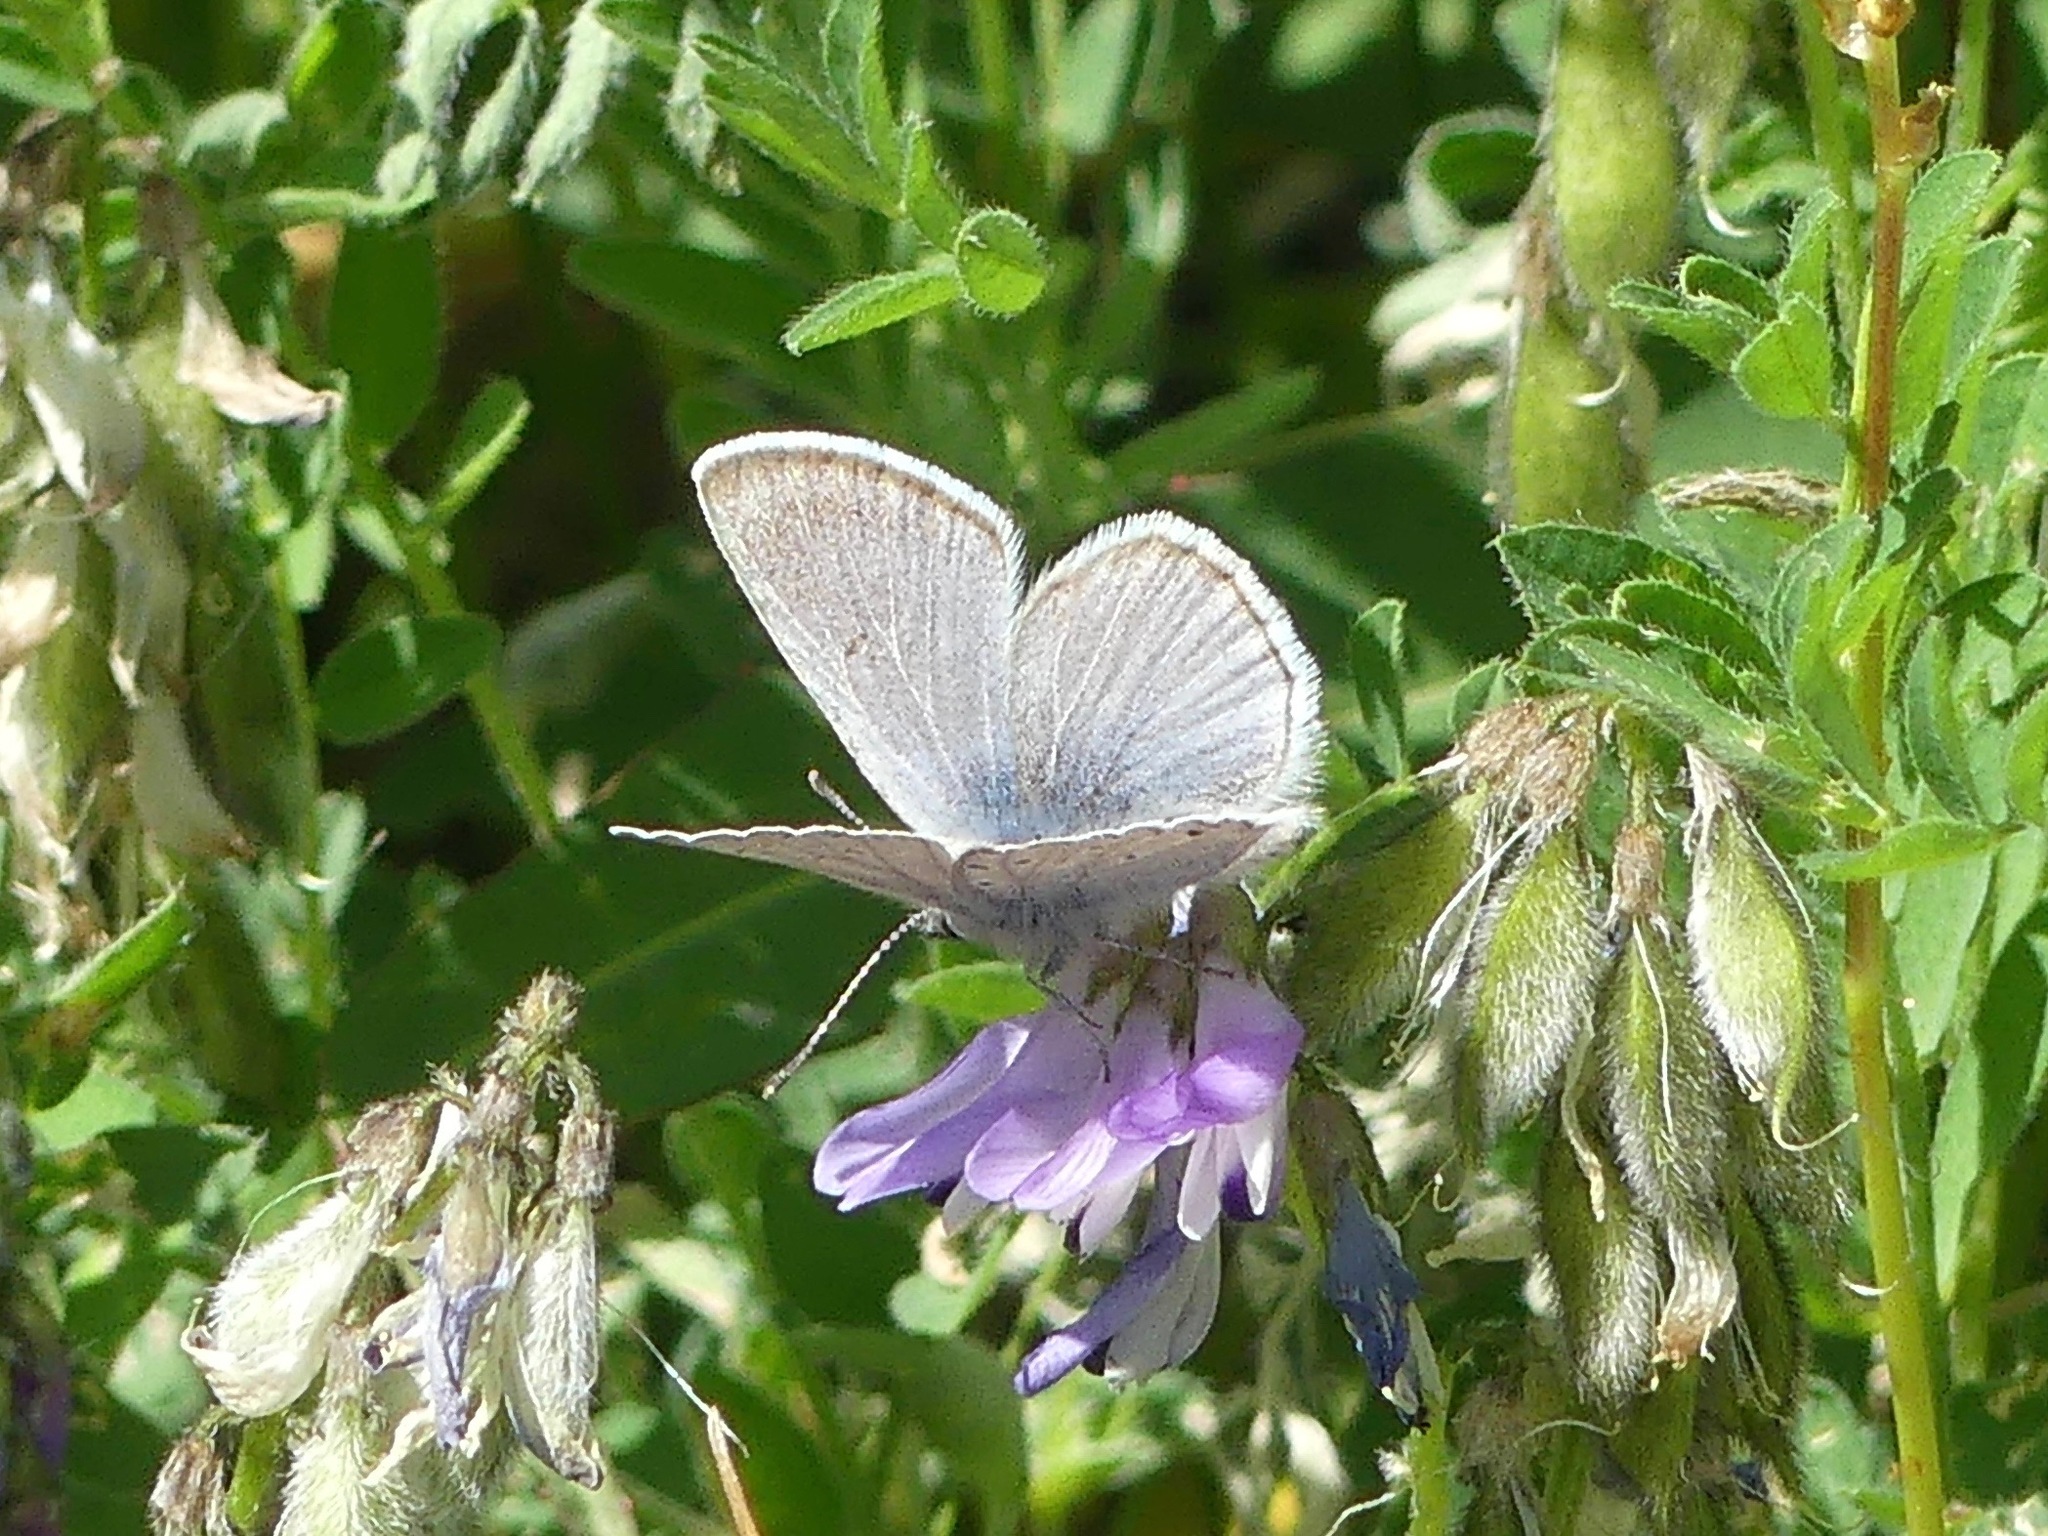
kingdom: Animalia
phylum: Arthropoda
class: Insecta
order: Lepidoptera
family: Lycaenidae
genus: Icaricia
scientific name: Icaricia saepiolus
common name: Greenish blue
